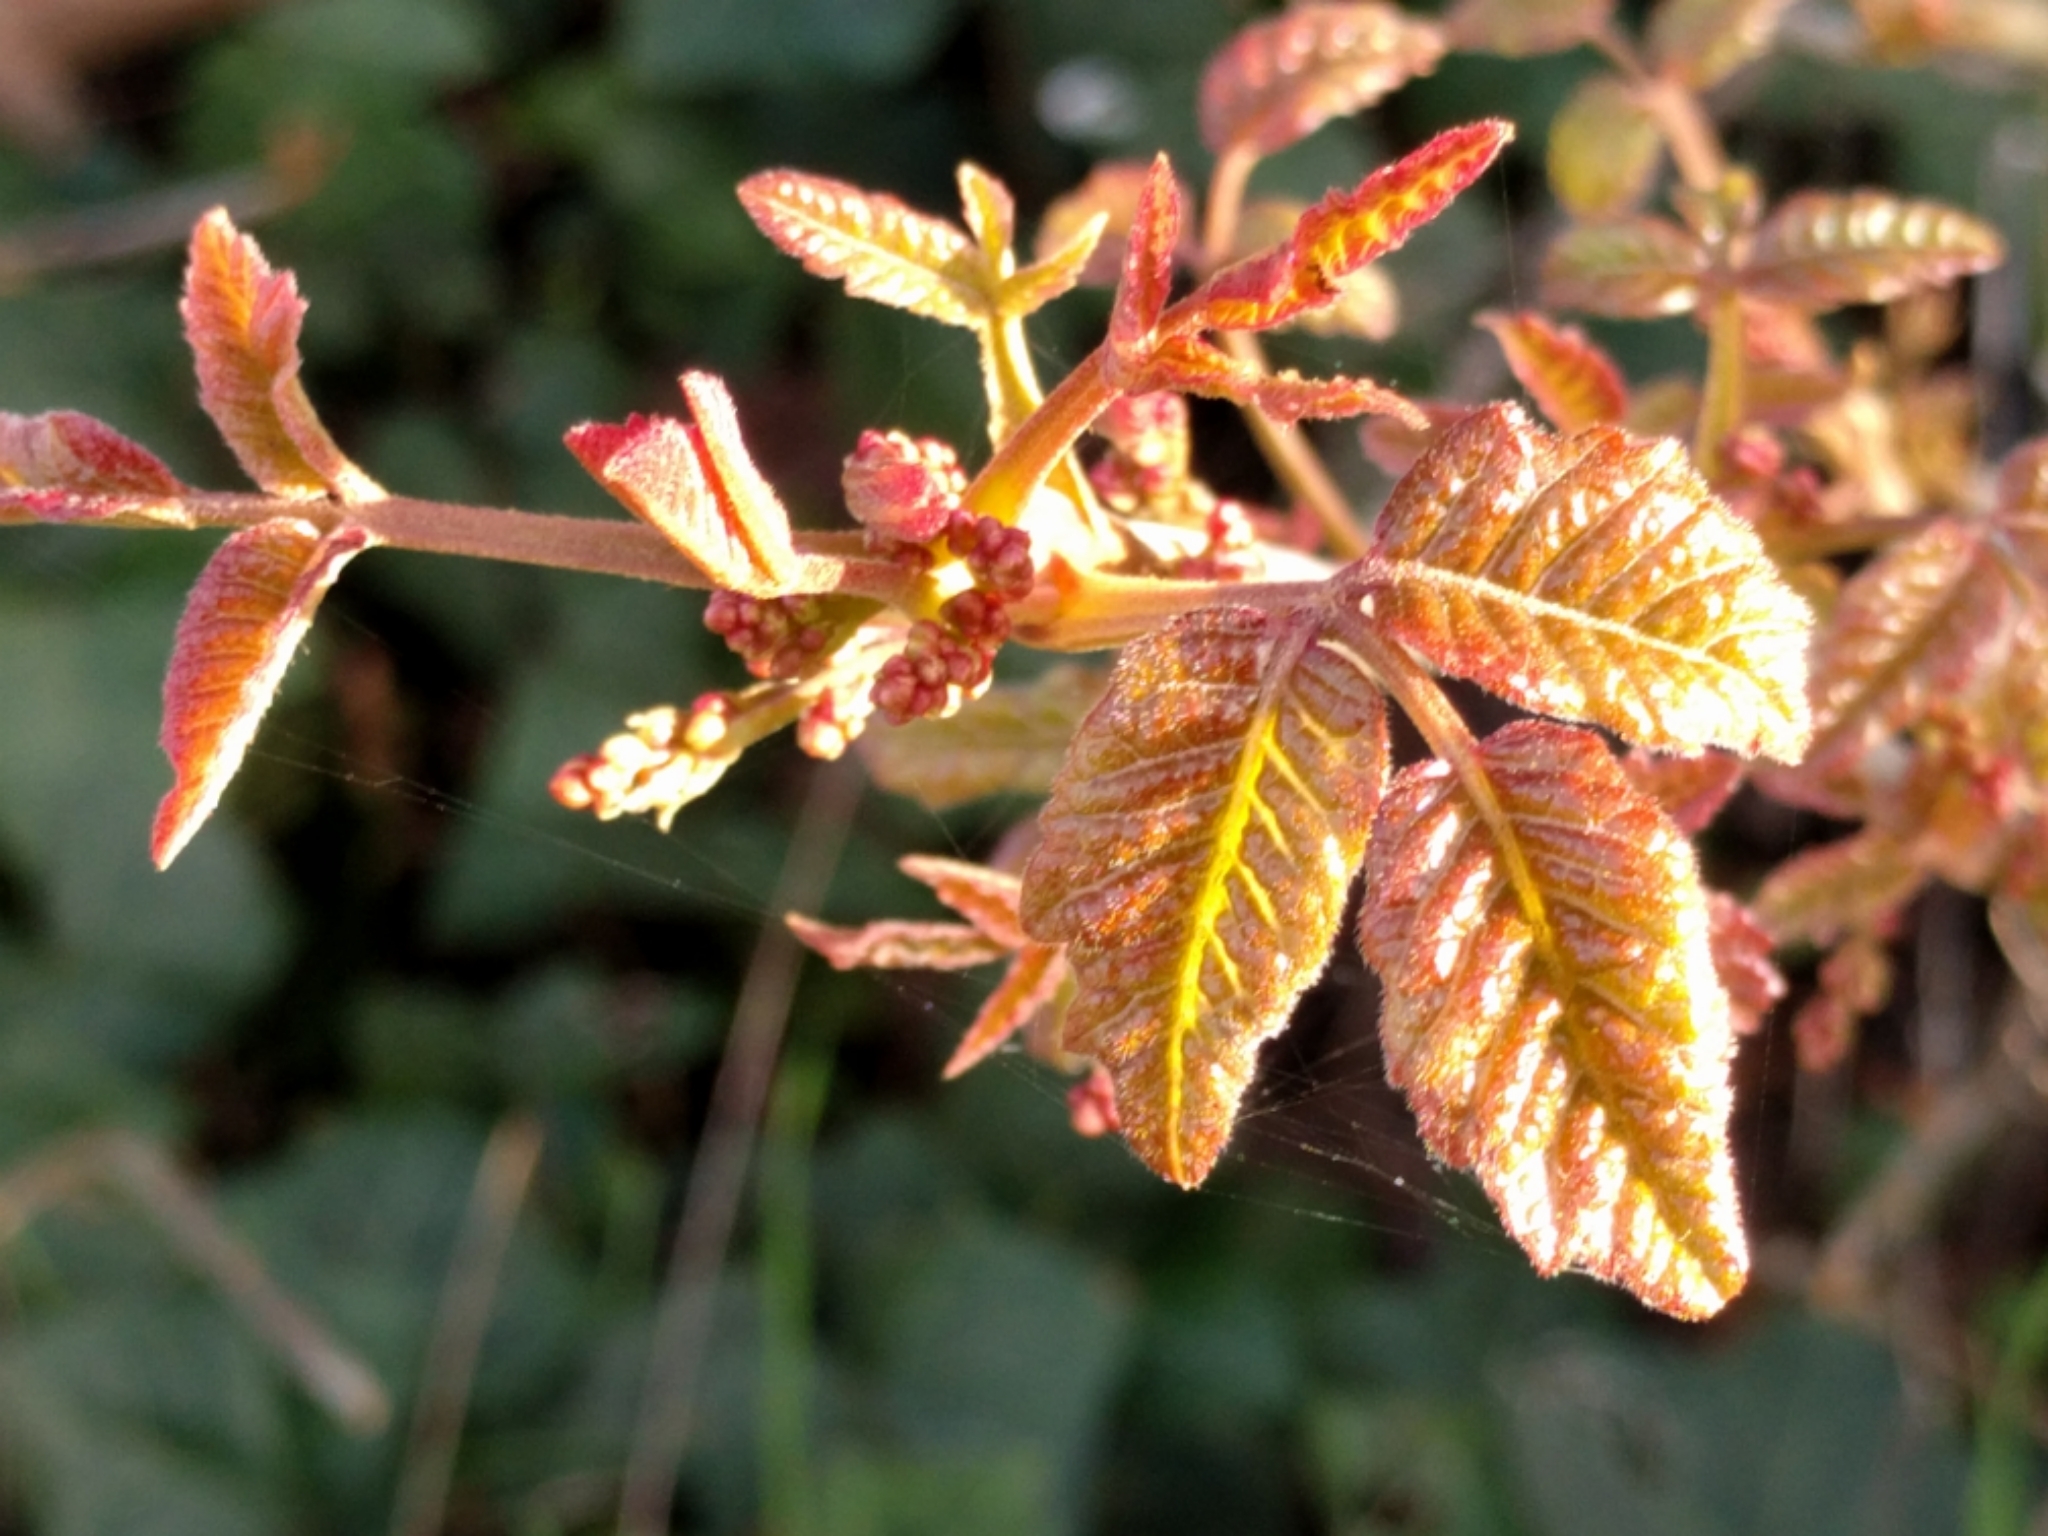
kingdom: Plantae
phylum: Tracheophyta
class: Magnoliopsida
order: Sapindales
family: Anacardiaceae
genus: Toxicodendron
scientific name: Toxicodendron diversilobum
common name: Pacific poison-oak
